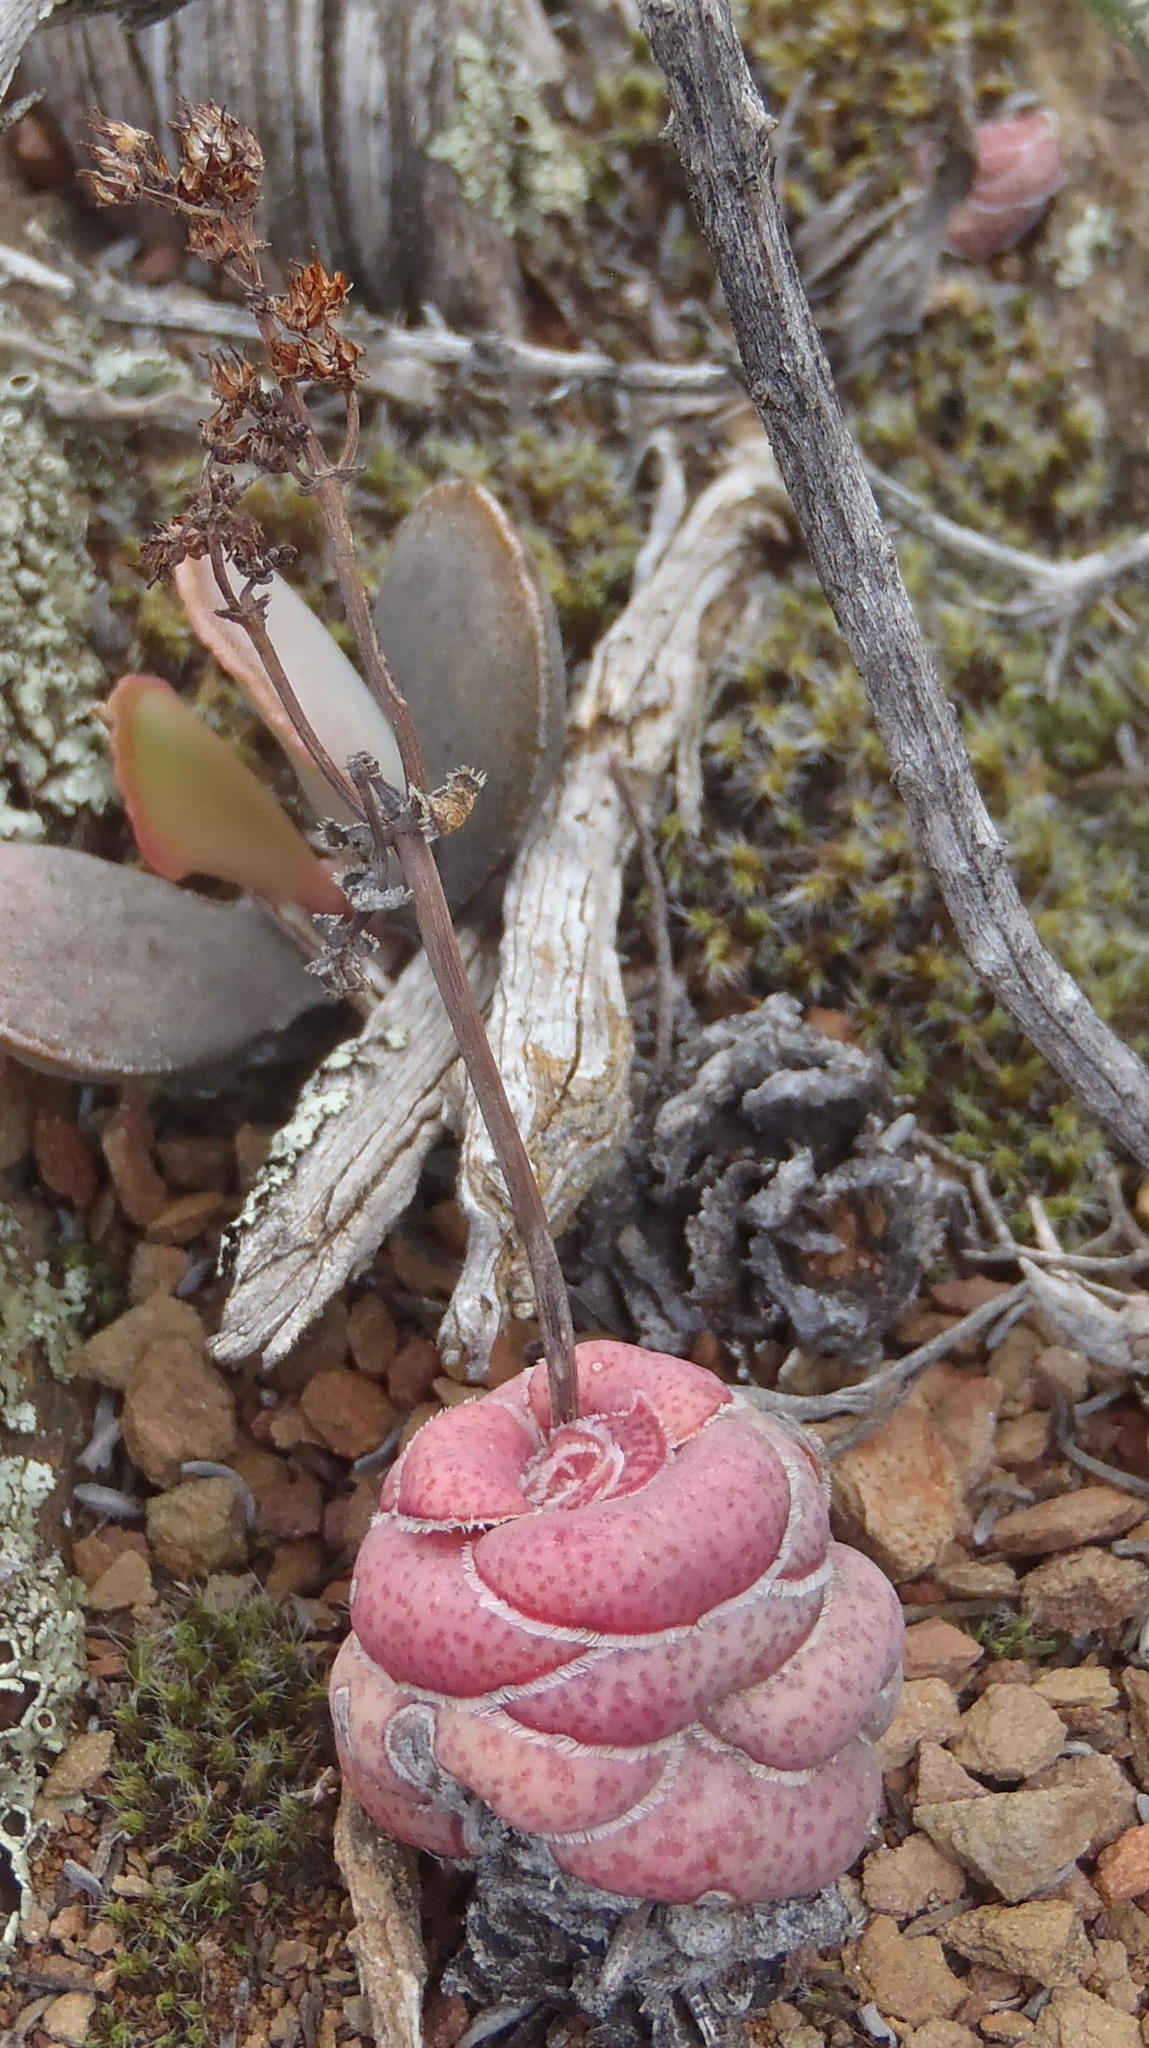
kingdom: Plantae
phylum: Tracheophyta
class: Magnoliopsida
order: Saxifragales
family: Crassulaceae
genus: Crassula
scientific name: Crassula hemisphaerica
